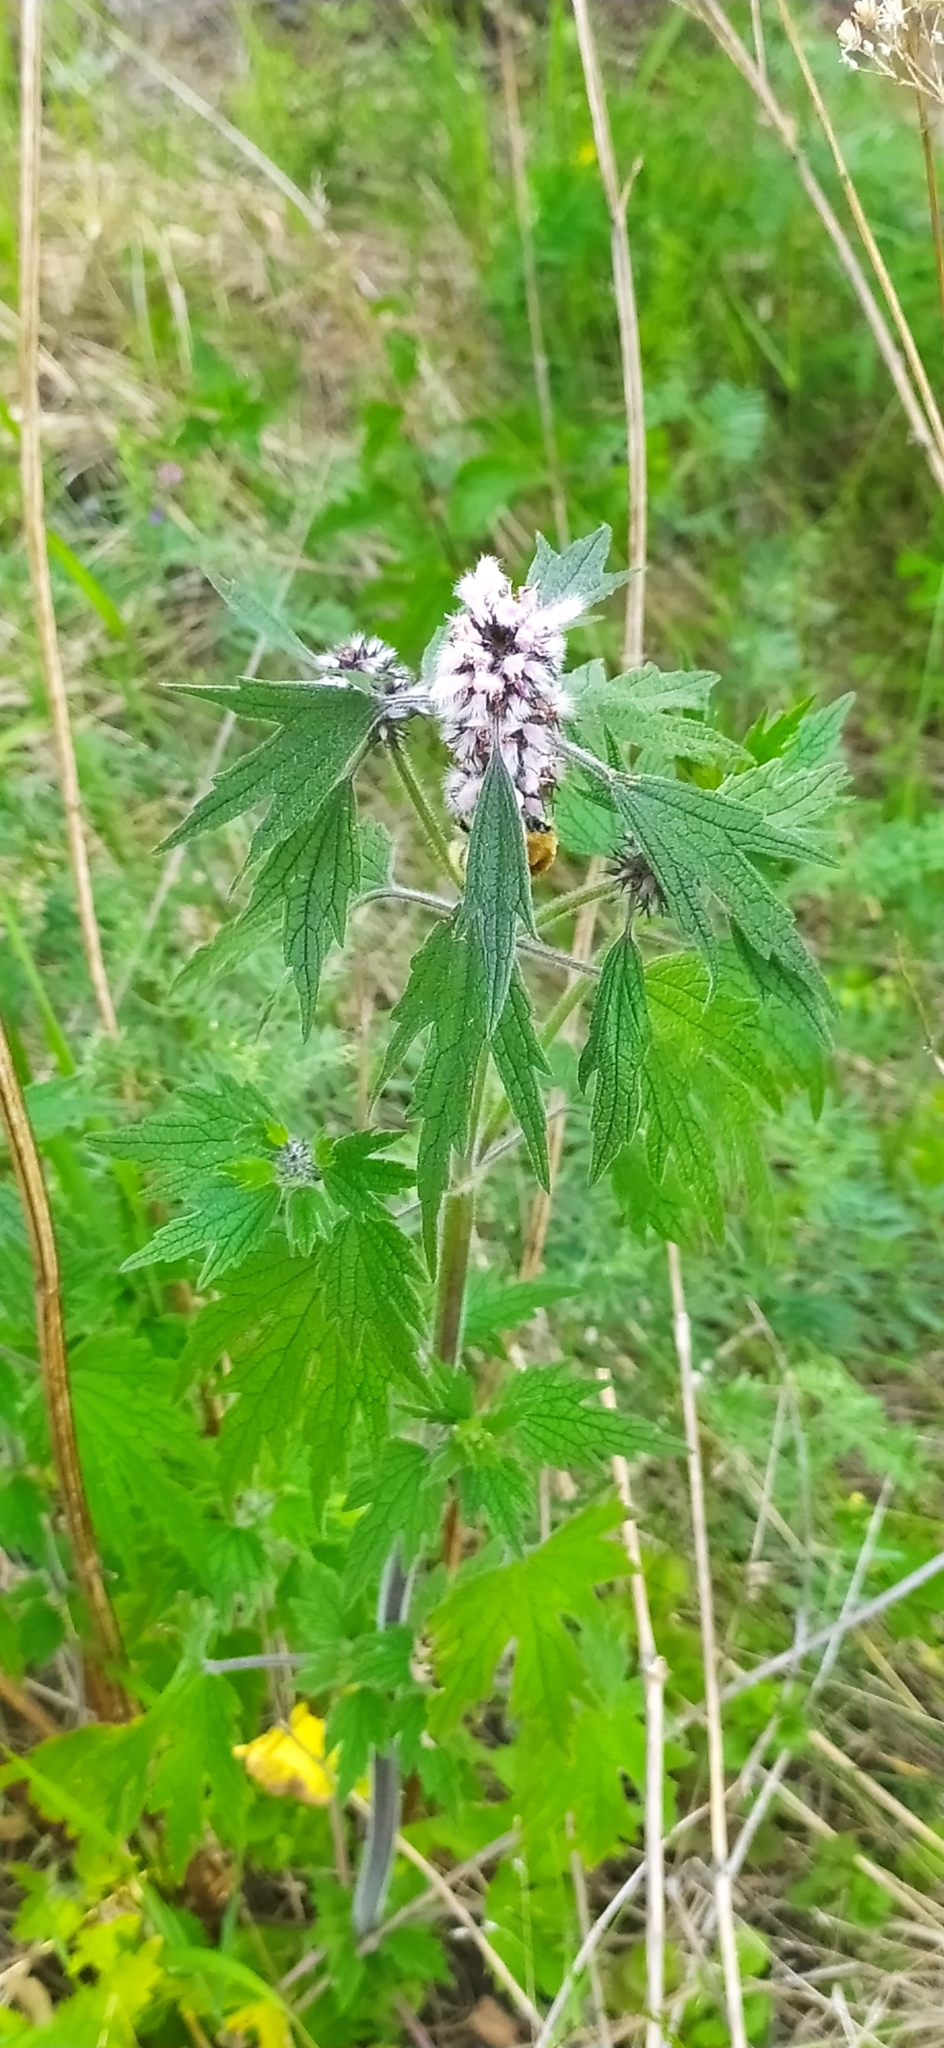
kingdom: Plantae
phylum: Tracheophyta
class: Magnoliopsida
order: Lamiales
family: Lamiaceae
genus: Leonurus
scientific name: Leonurus quinquelobatus
